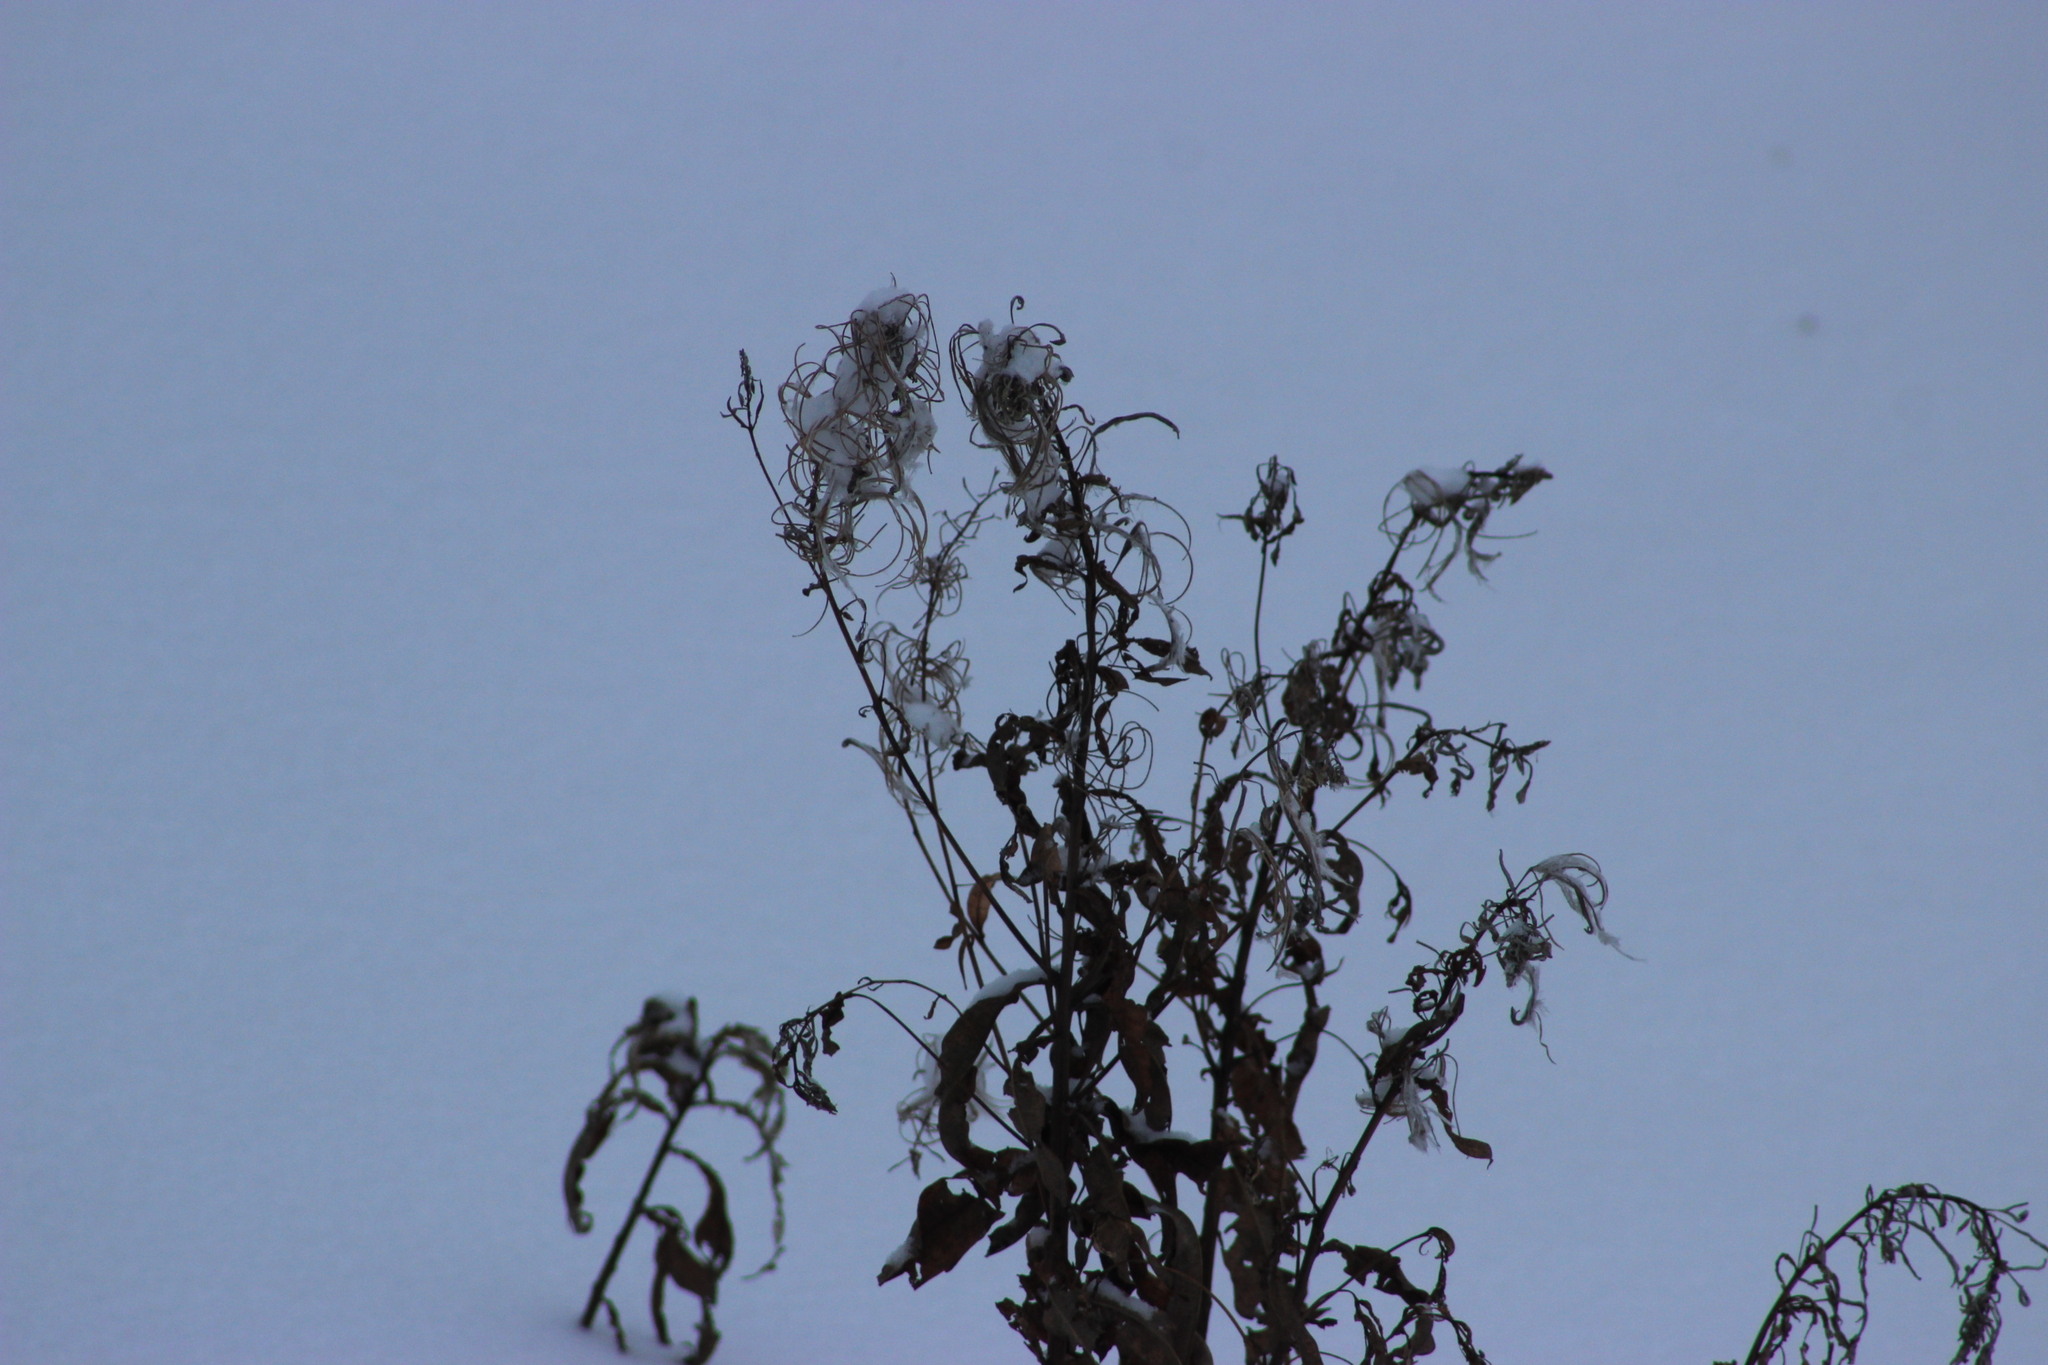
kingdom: Plantae
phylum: Tracheophyta
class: Magnoliopsida
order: Myrtales
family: Onagraceae
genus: Chamaenerion
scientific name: Chamaenerion angustifolium
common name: Fireweed
